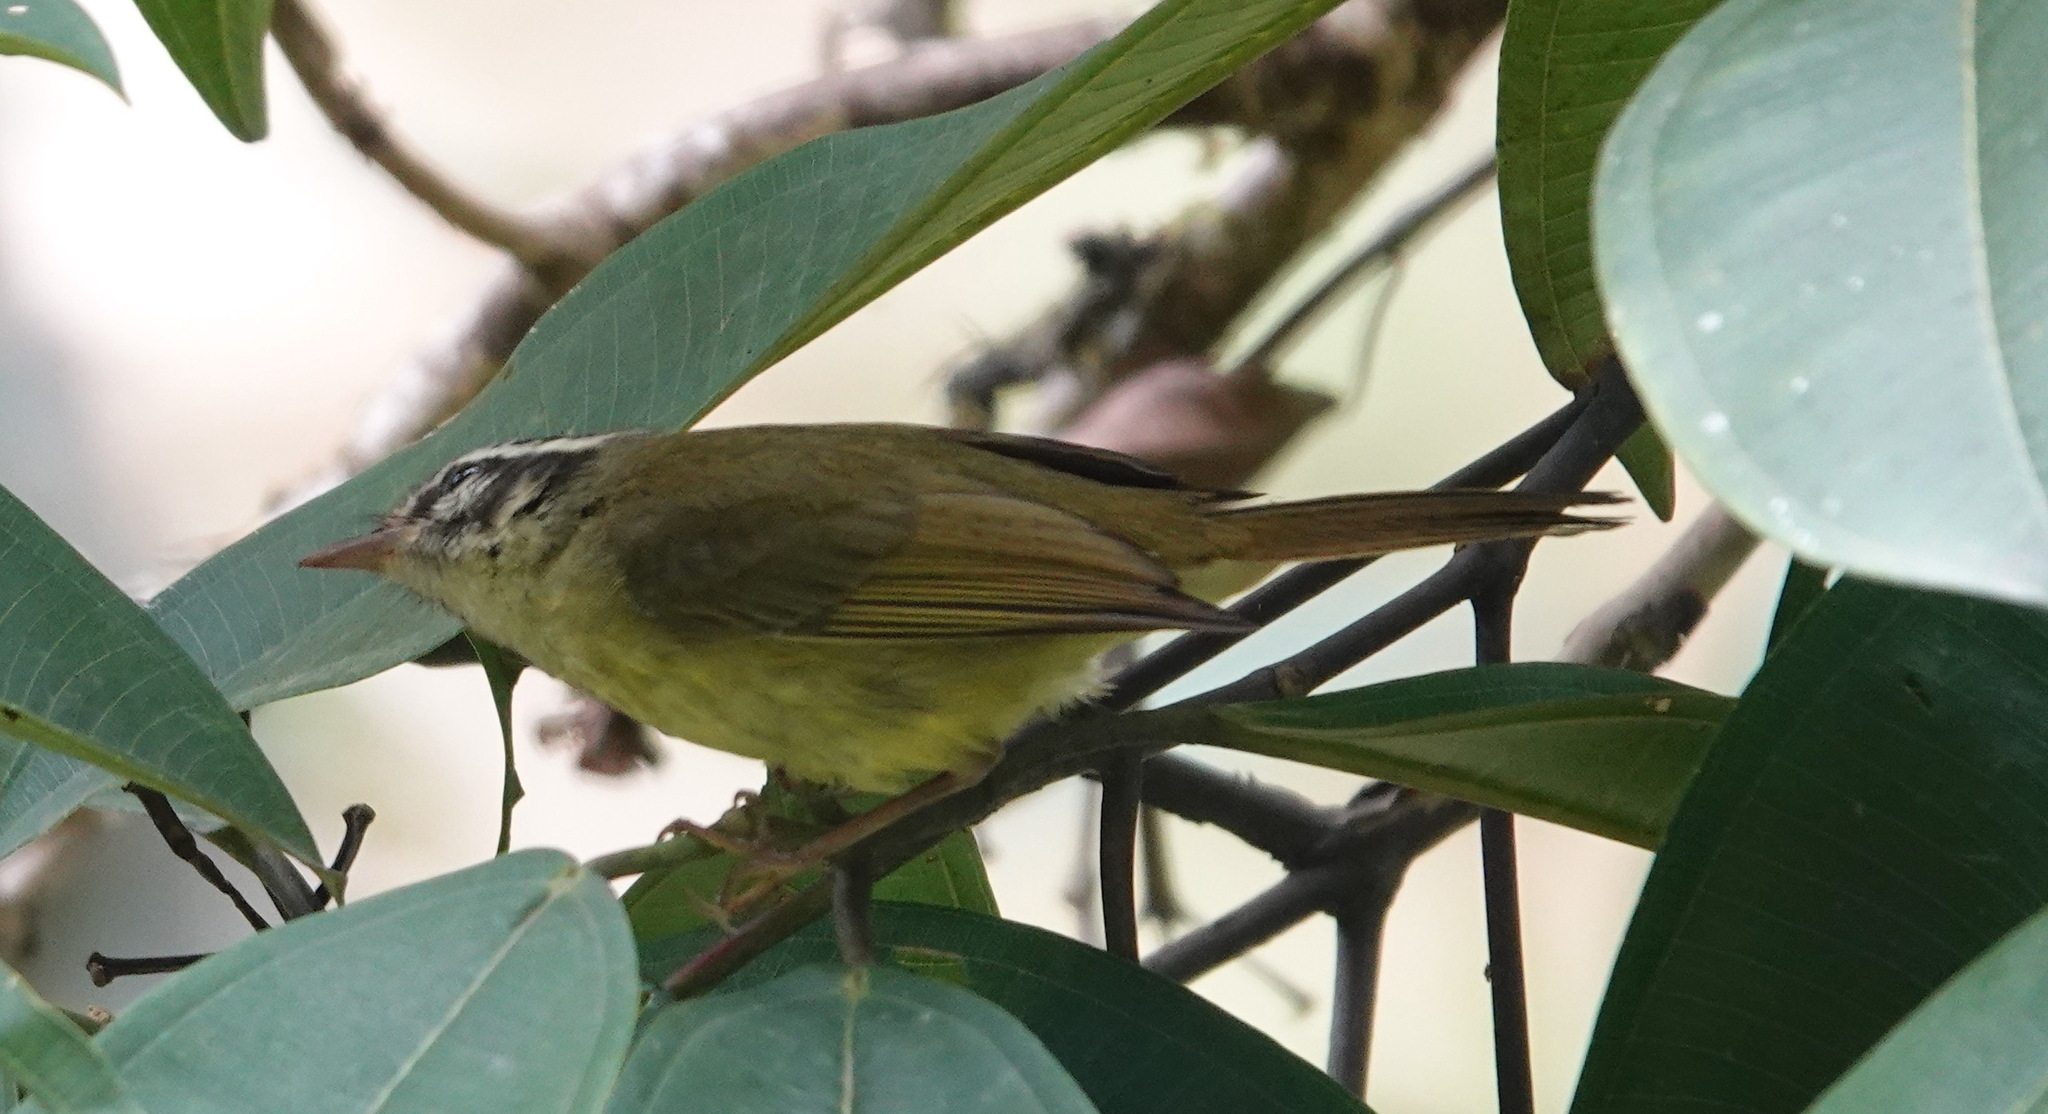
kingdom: Animalia
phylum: Chordata
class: Aves
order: Passeriformes
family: Parulidae
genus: Basileuterus
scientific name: Basileuterus tristriatus
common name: Three-striped warbler
